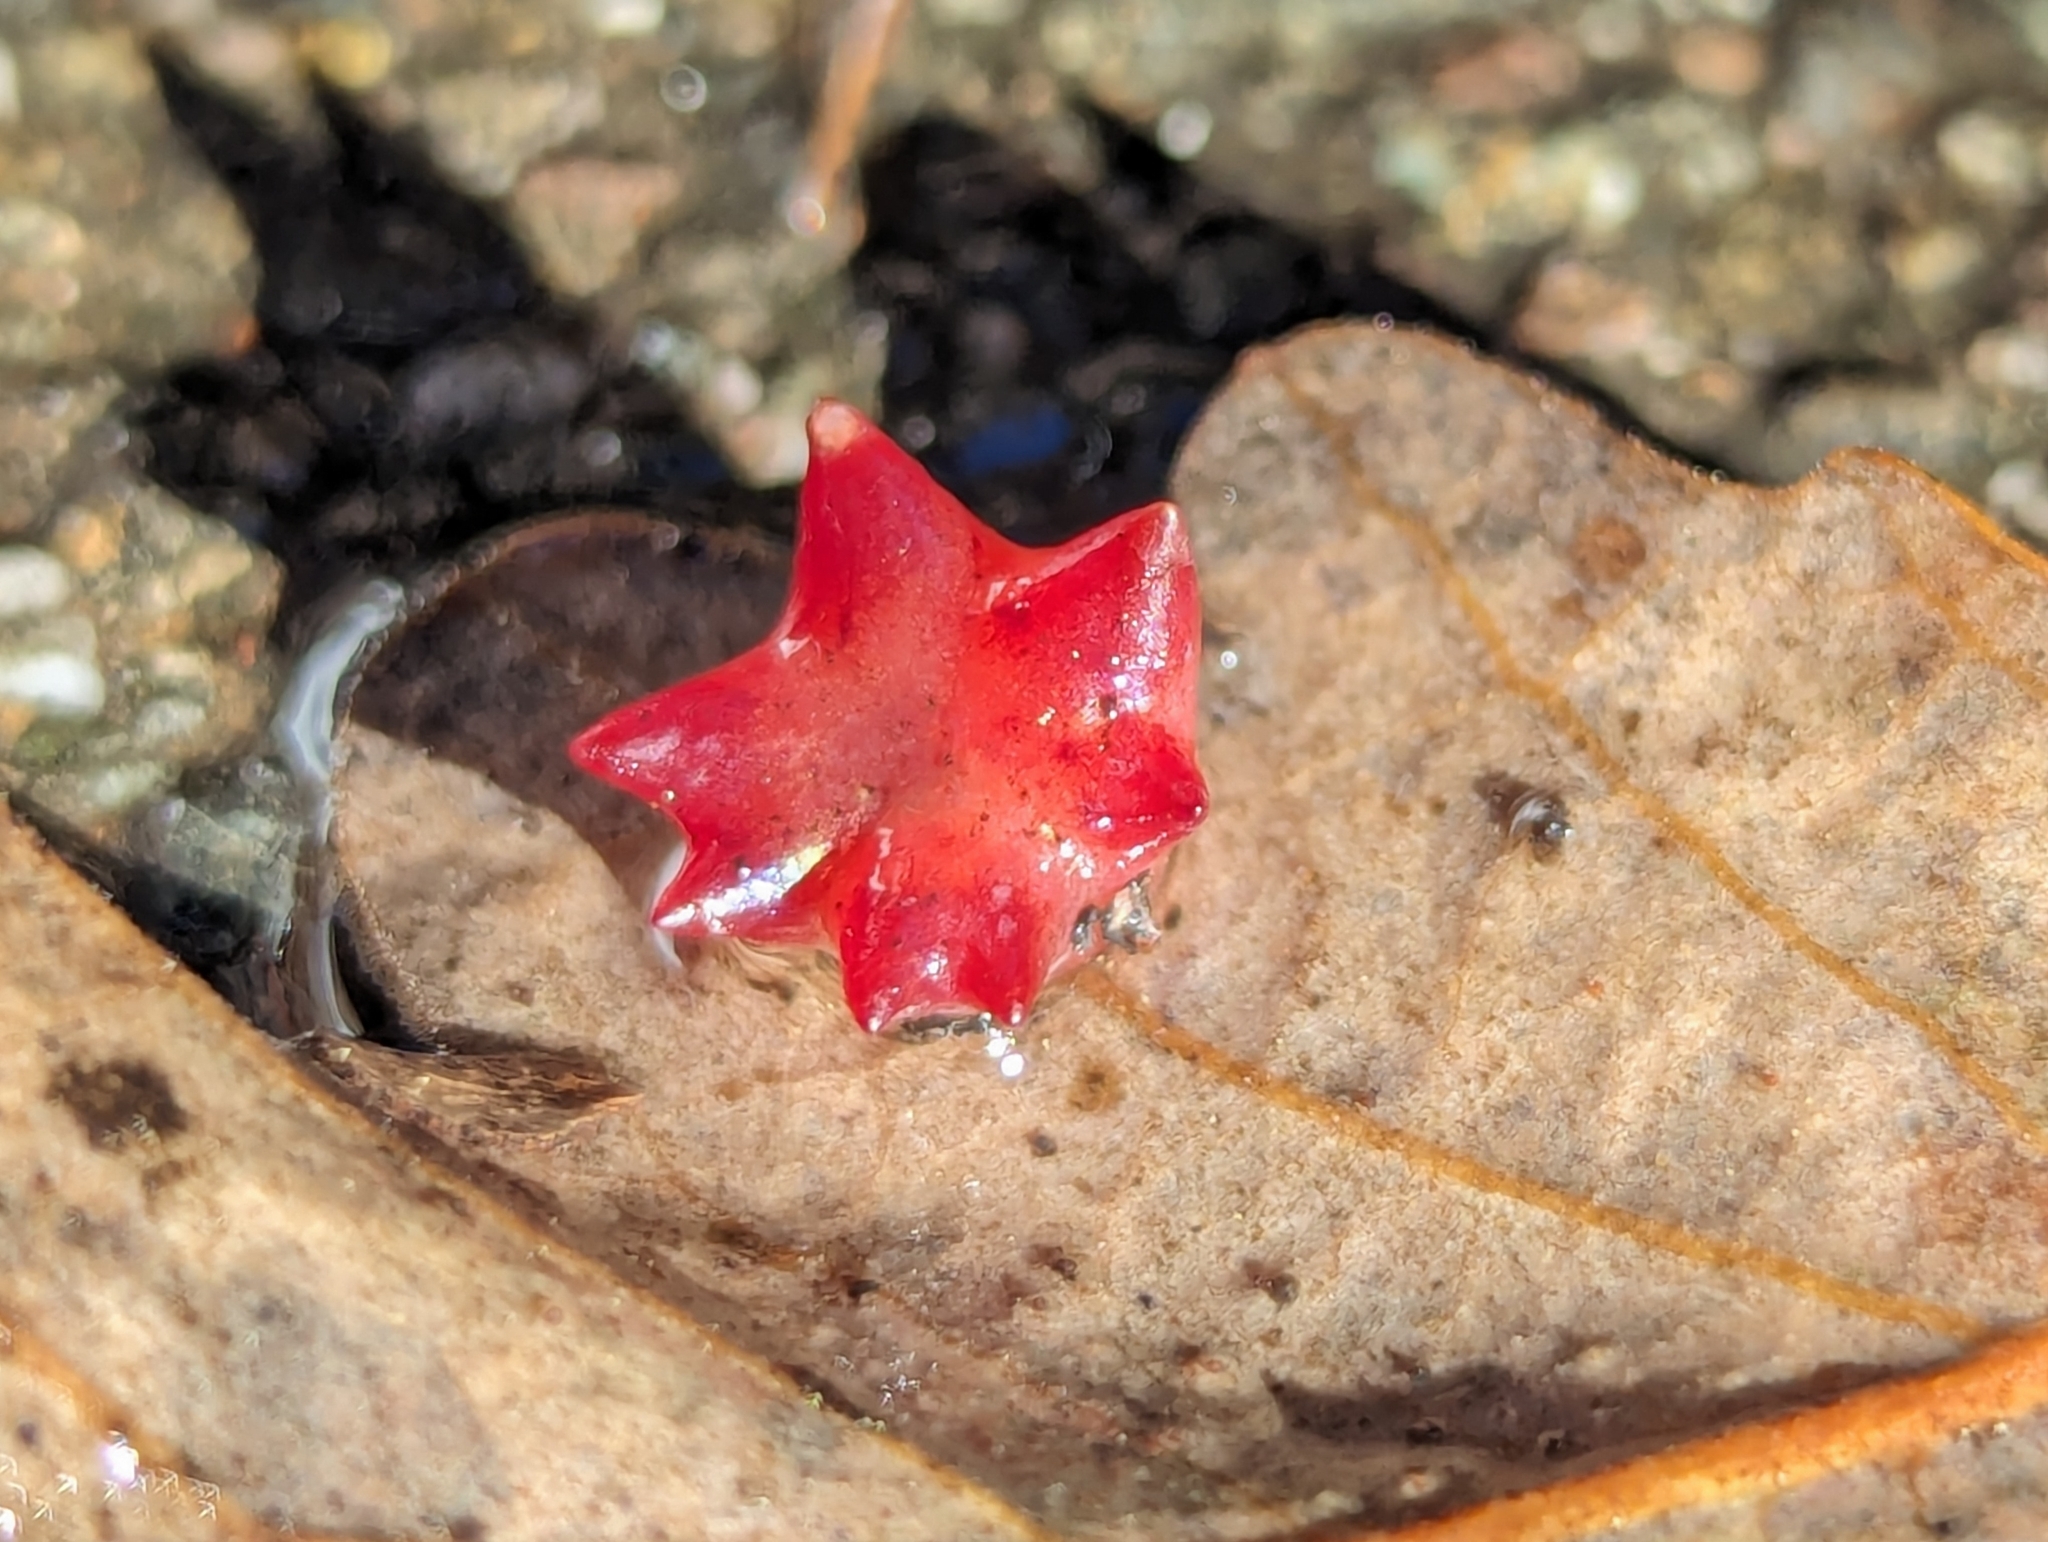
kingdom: Animalia
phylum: Arthropoda
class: Insecta
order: Hymenoptera
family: Cynipidae
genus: Cynips
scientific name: Cynips douglasi
